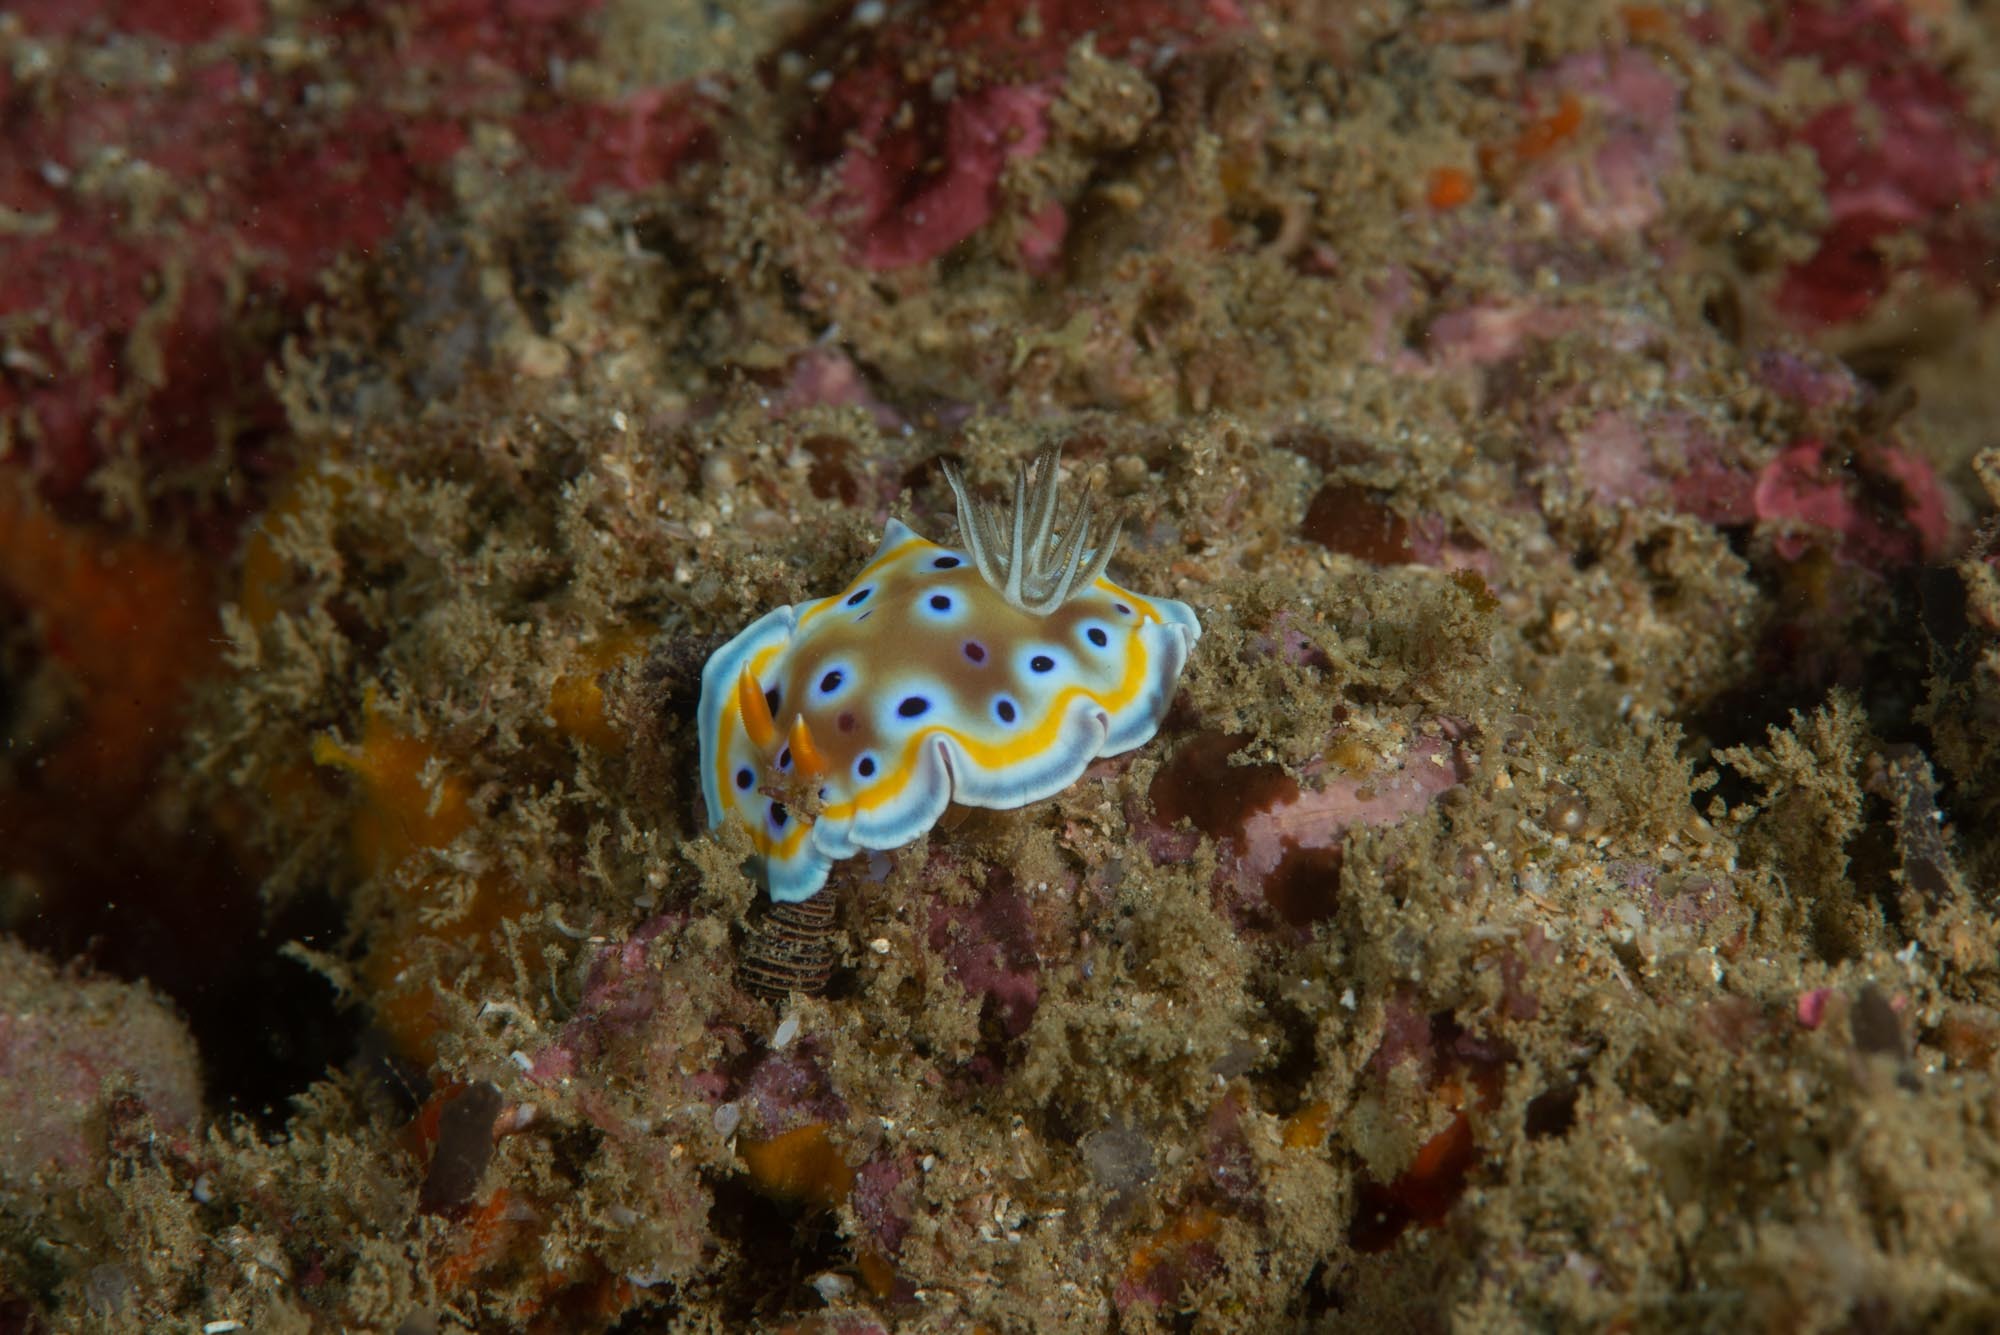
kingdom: Animalia
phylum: Mollusca
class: Gastropoda
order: Nudibranchia
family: Chromodorididae
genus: Goniobranchus
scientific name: Goniobranchus geminus
